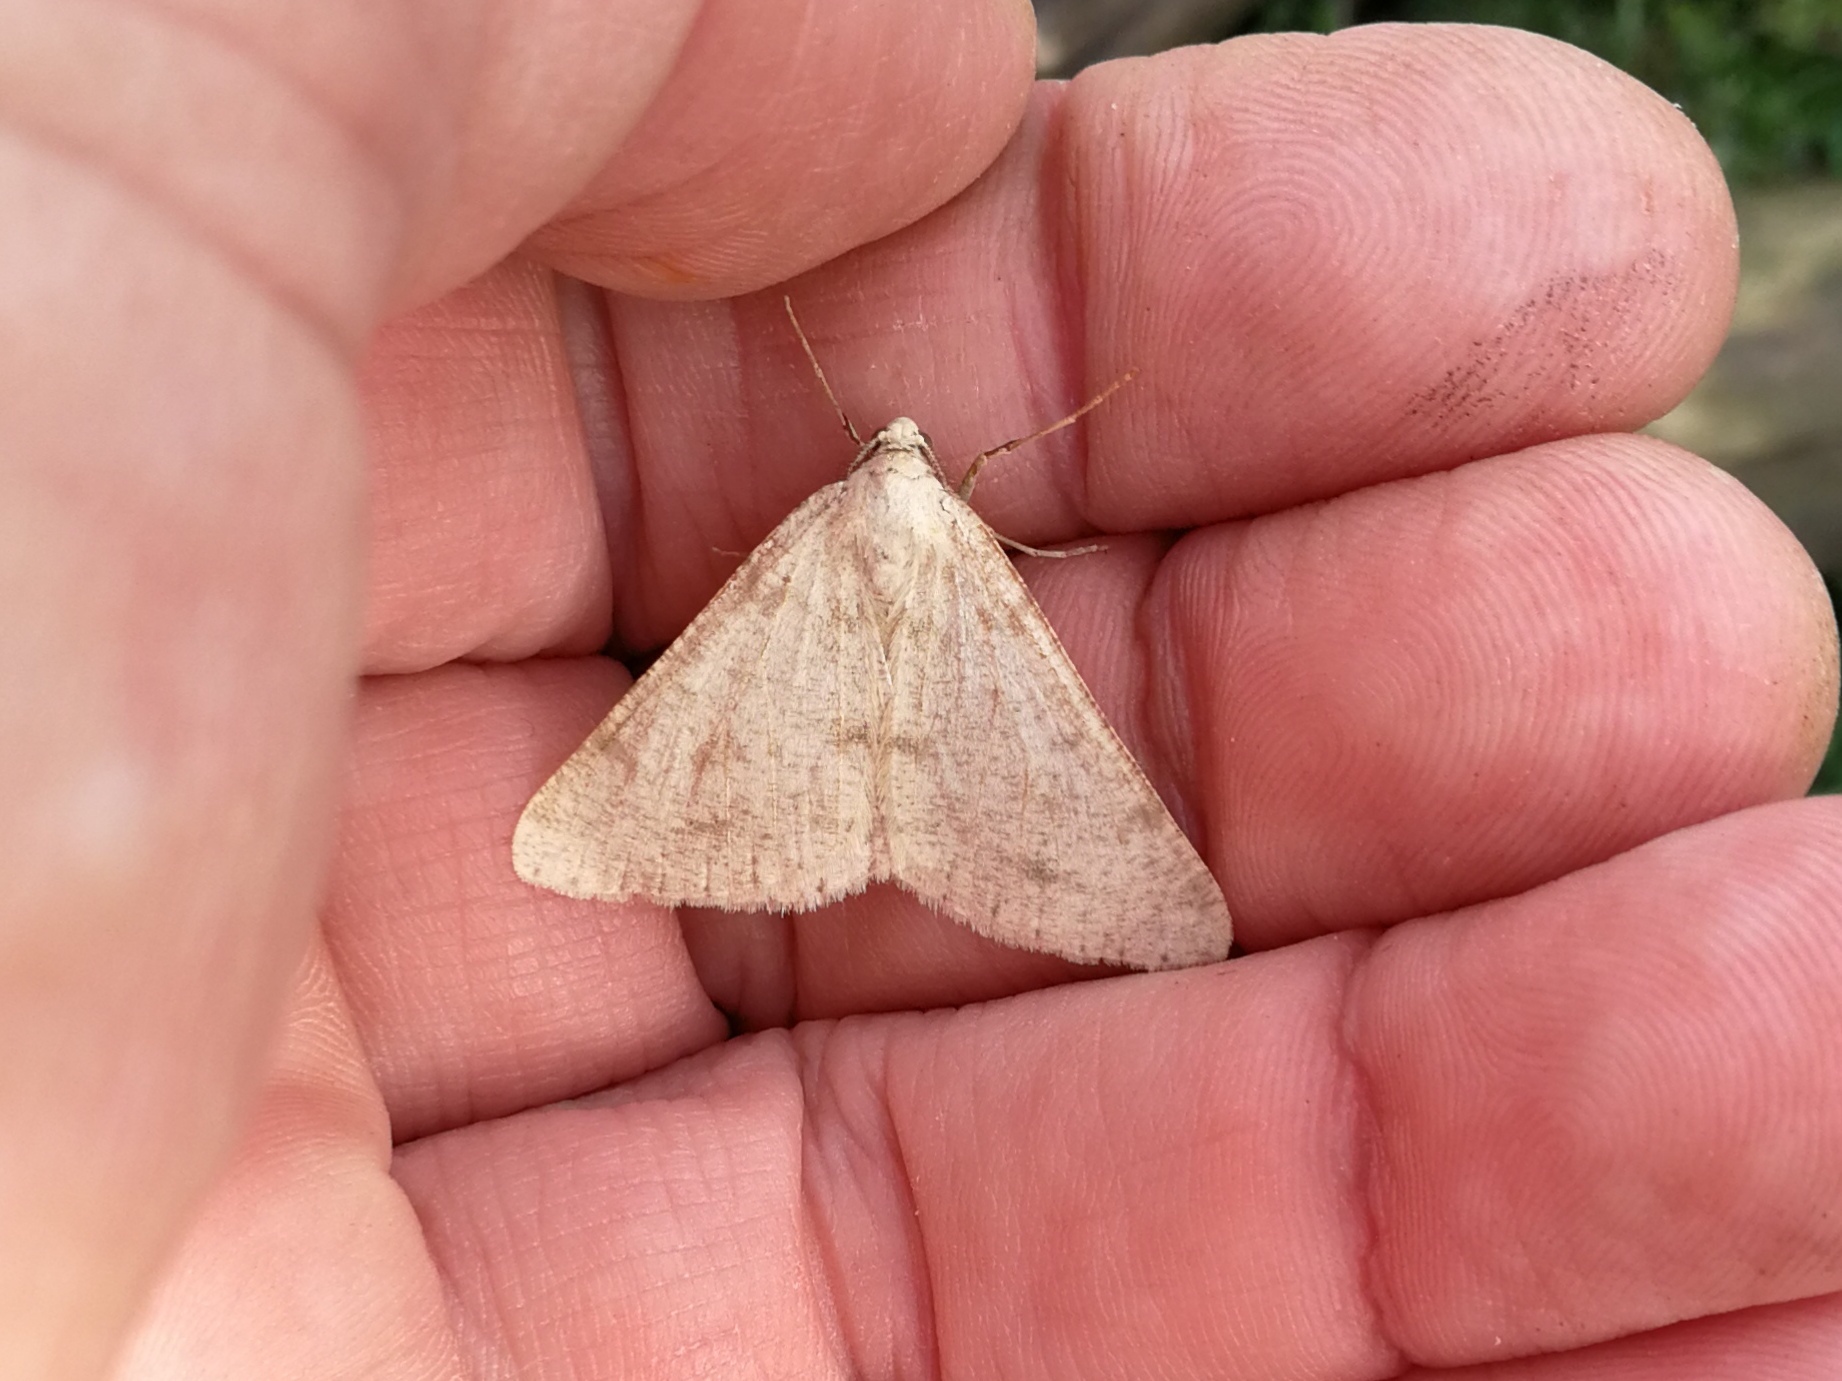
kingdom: Animalia
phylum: Arthropoda
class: Insecta
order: Lepidoptera
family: Geometridae
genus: Isturgia
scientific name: Isturgia miniosaria
